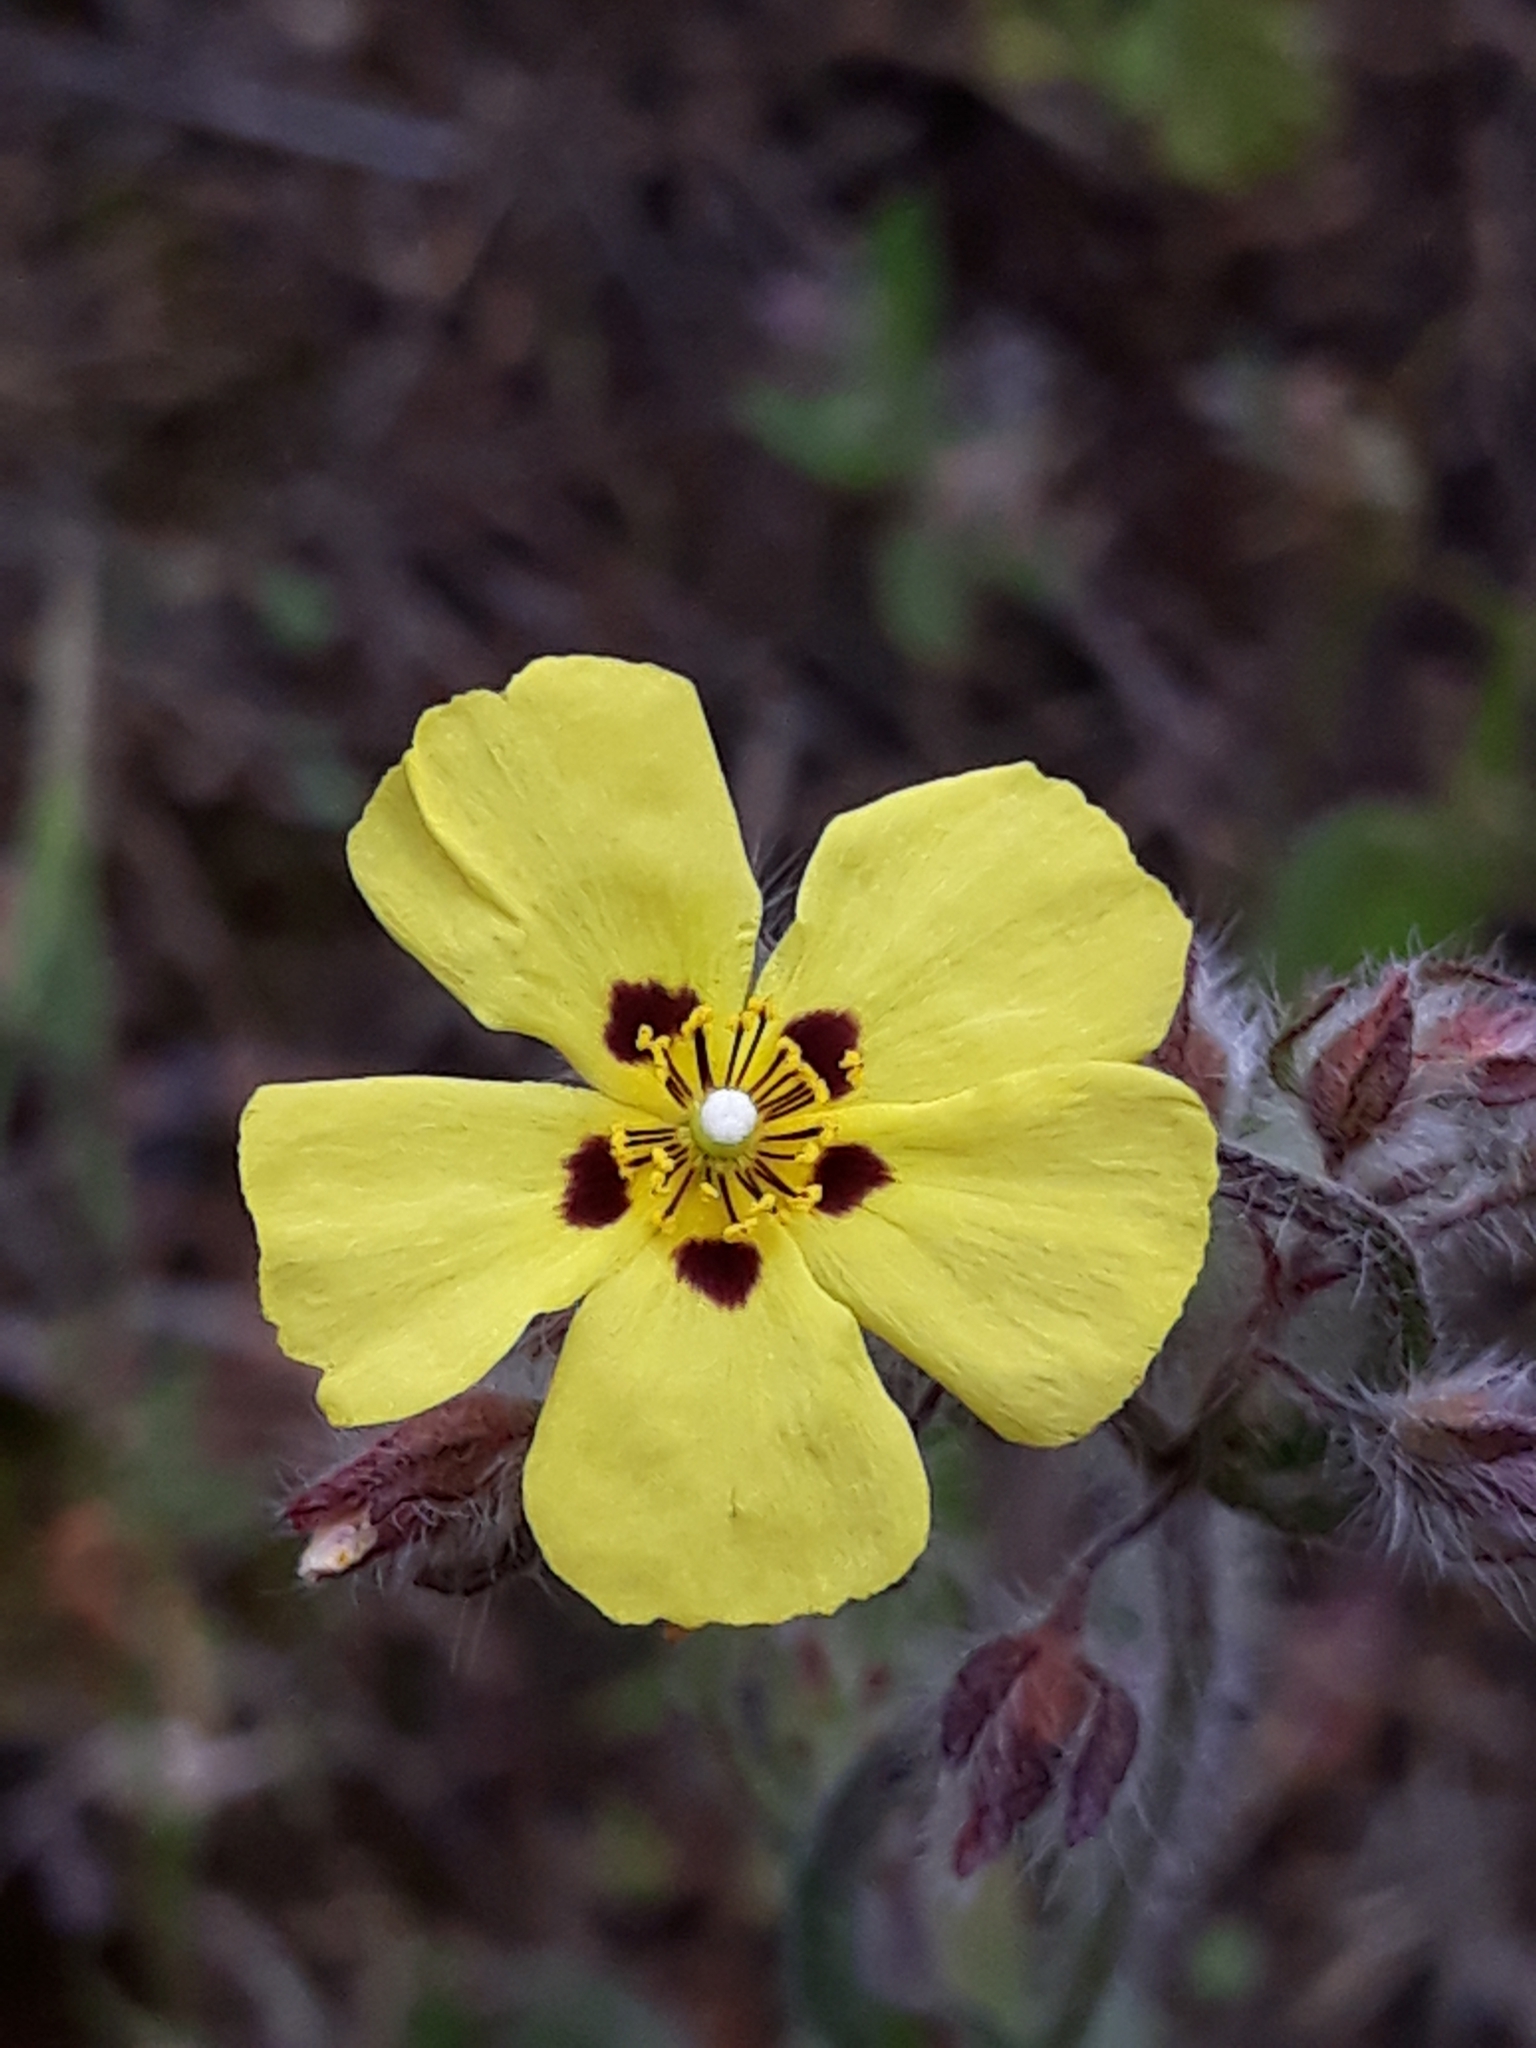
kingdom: Plantae
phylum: Tracheophyta
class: Magnoliopsida
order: Malvales
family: Cistaceae
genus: Tuberaria
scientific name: Tuberaria guttata
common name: Spotted rock-rose
